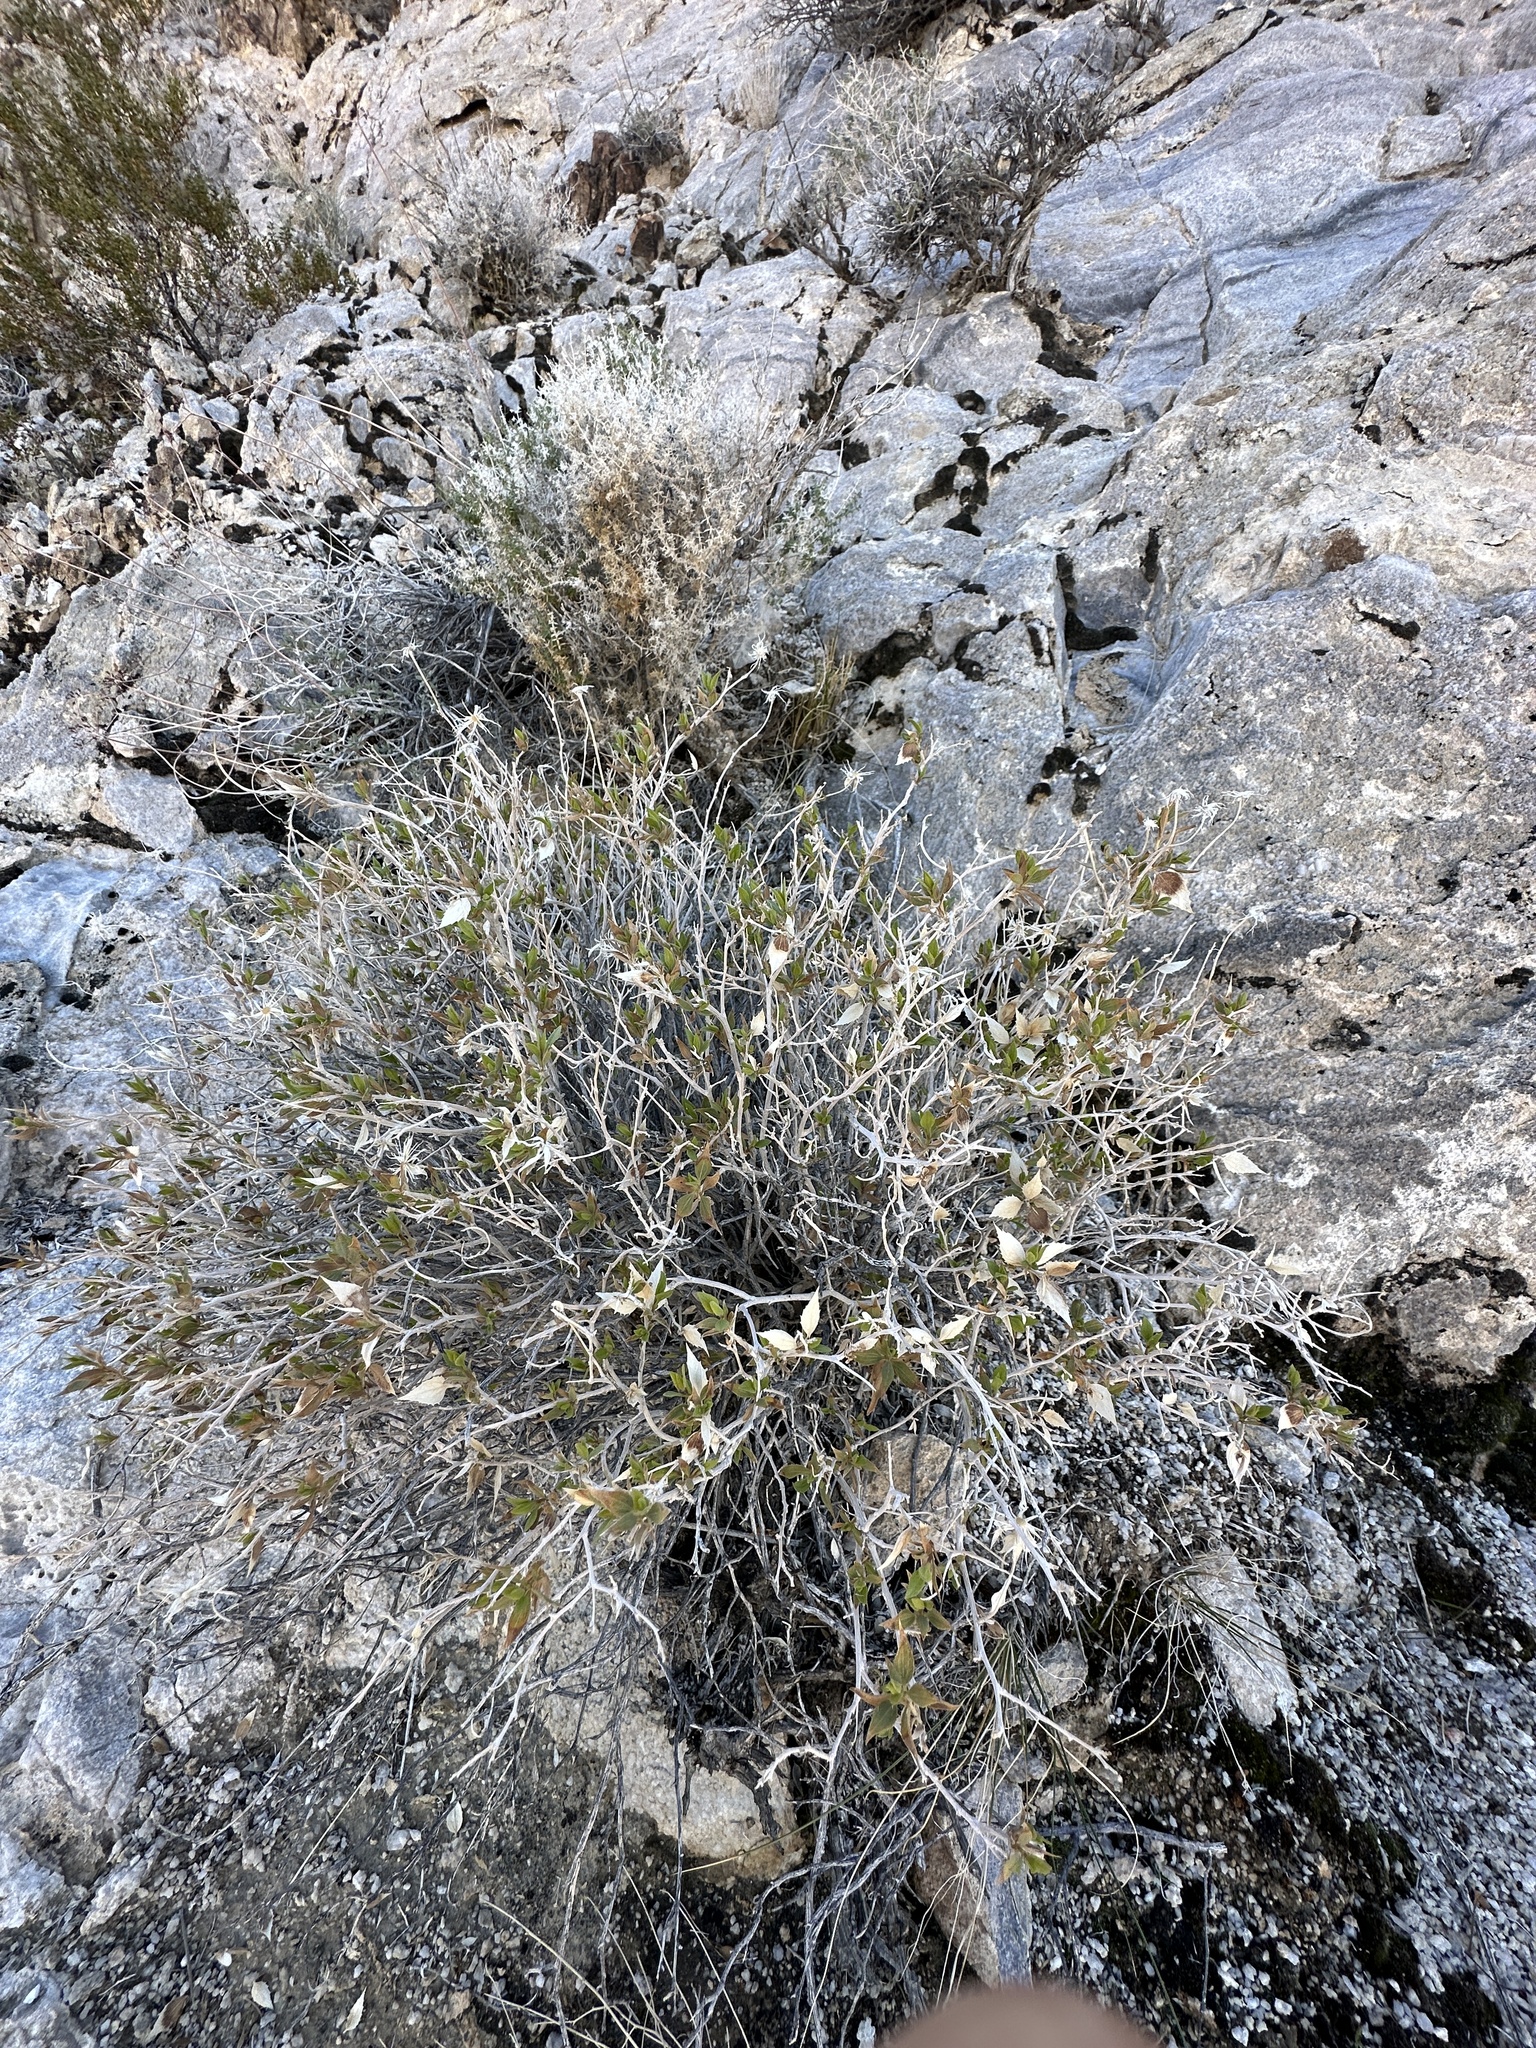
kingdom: Plantae
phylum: Tracheophyta
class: Magnoliopsida
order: Asterales
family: Asteraceae
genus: Brickellia
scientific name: Brickellia atractyloides
